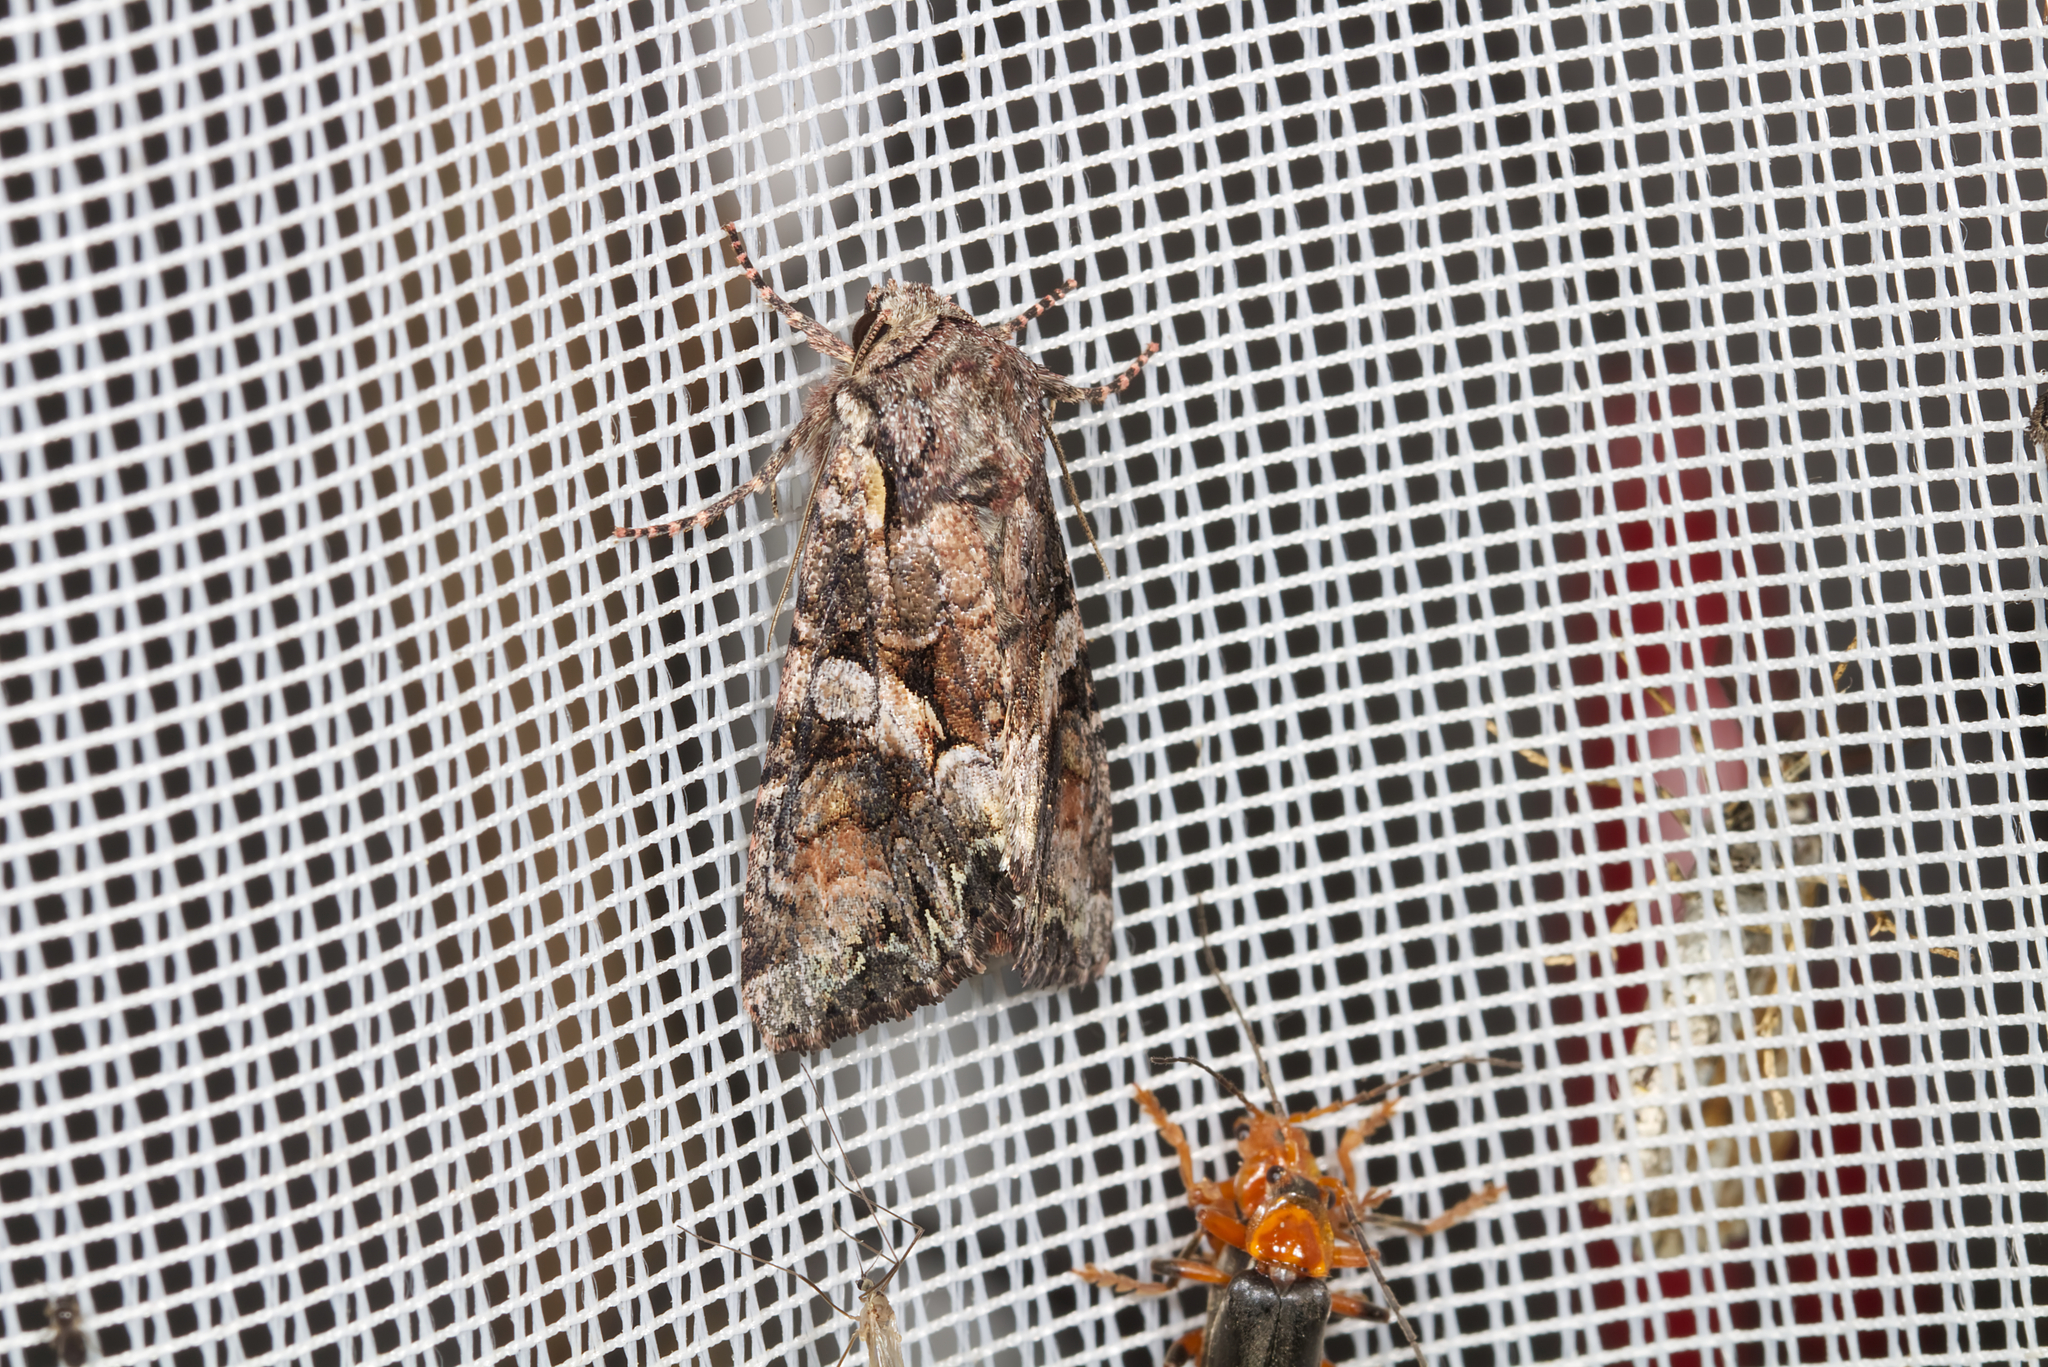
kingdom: Animalia
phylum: Arthropoda
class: Insecta
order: Lepidoptera
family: Noctuidae
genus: Lacanobia
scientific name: Lacanobia contigua
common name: Beautiful brocade
